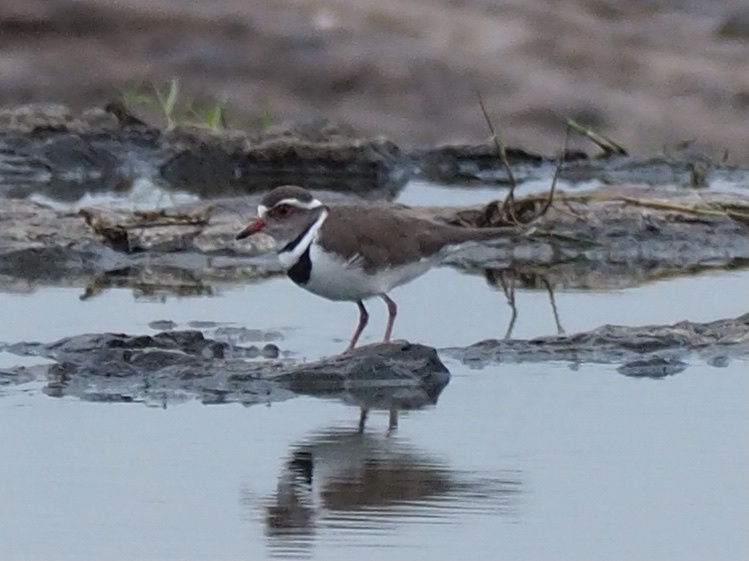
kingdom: Animalia
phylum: Chordata
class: Aves
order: Charadriiformes
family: Charadriidae
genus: Charadrius
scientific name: Charadrius tricollaris
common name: Three-banded plover
